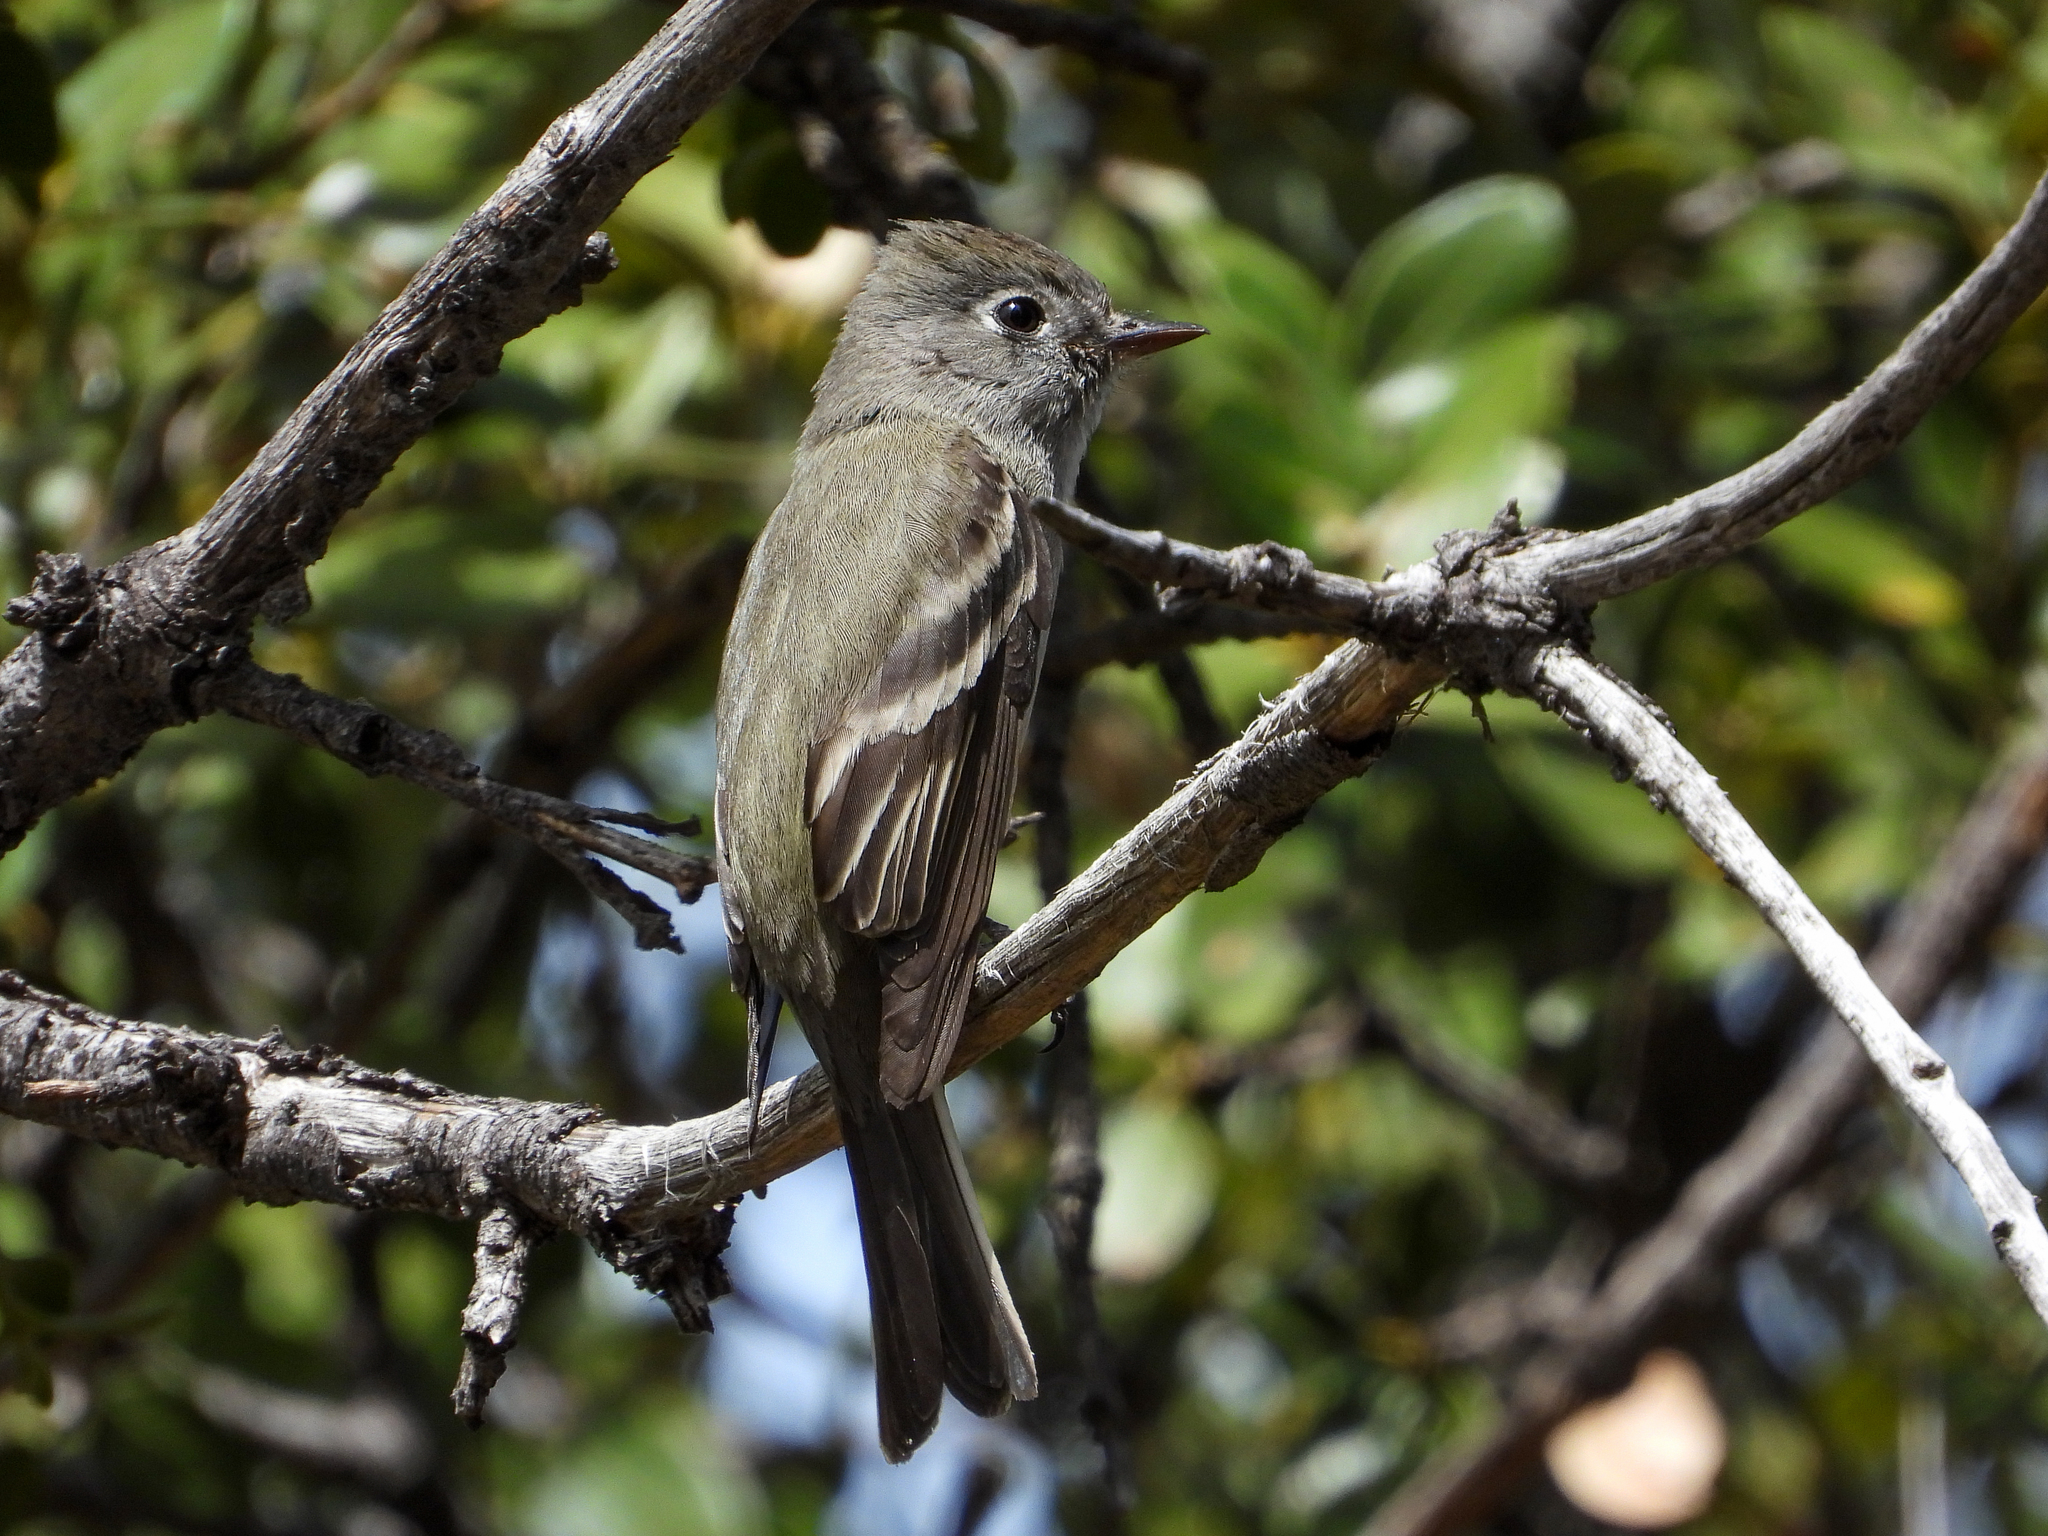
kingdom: Animalia
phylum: Chordata
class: Aves
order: Passeriformes
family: Tyrannidae
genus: Empidonax
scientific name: Empidonax hammondii
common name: Hammond's flycatcher
